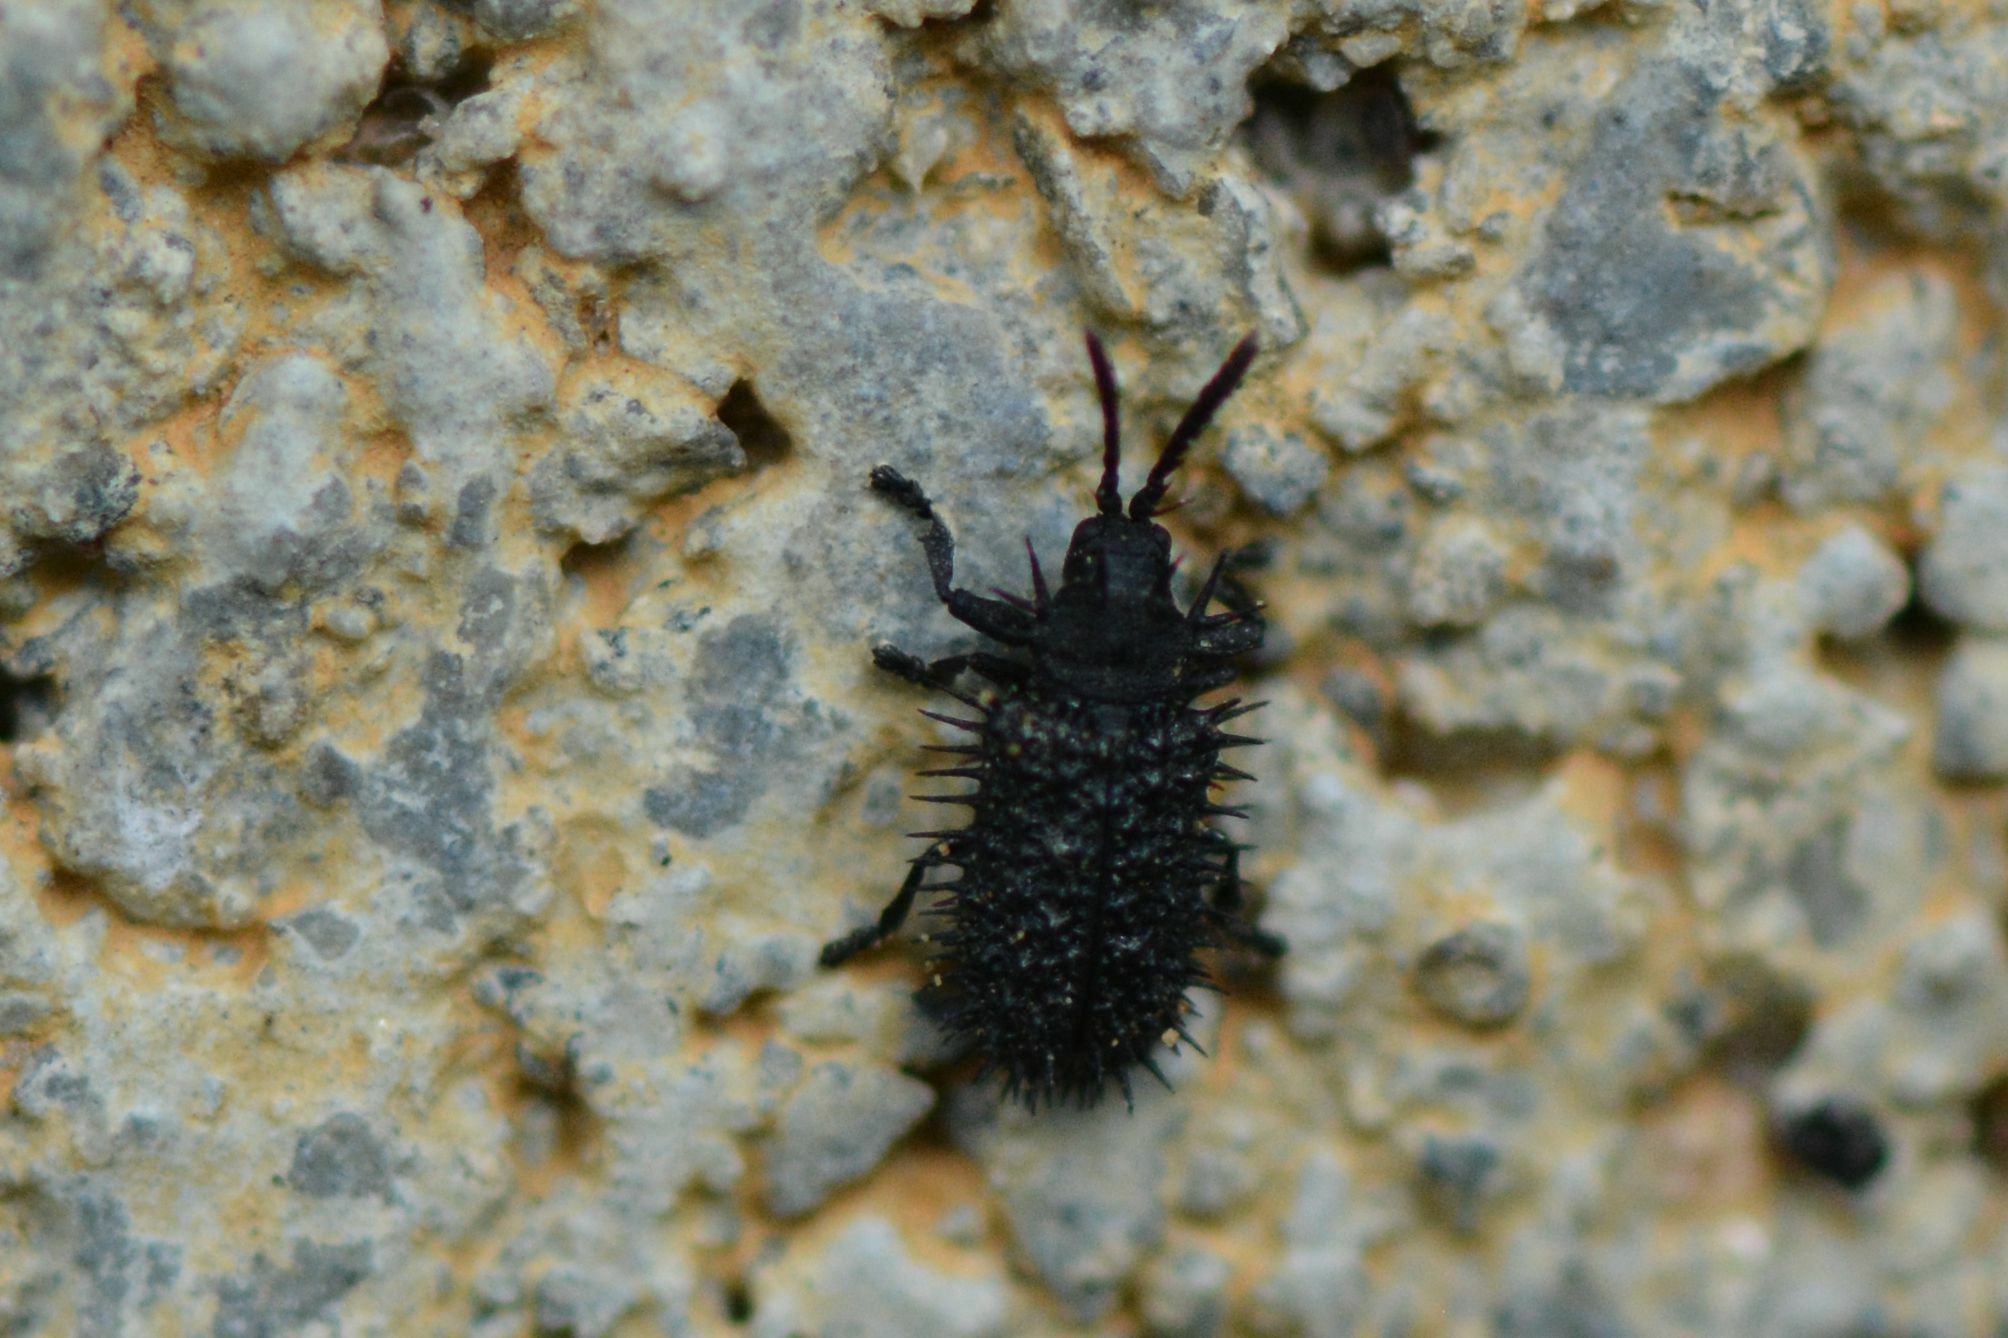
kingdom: Animalia
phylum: Arthropoda
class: Insecta
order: Coleoptera
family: Chrysomelidae
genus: Hispa
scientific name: Hispa atra
